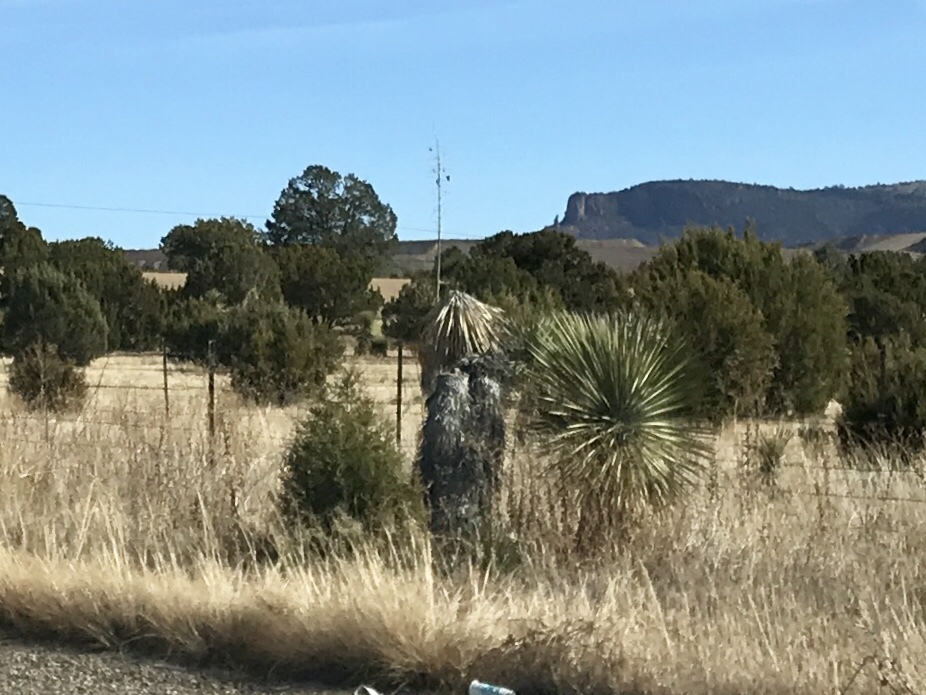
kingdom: Plantae
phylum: Tracheophyta
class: Liliopsida
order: Asparagales
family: Asparagaceae
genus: Yucca
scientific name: Yucca elata
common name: Palmella
